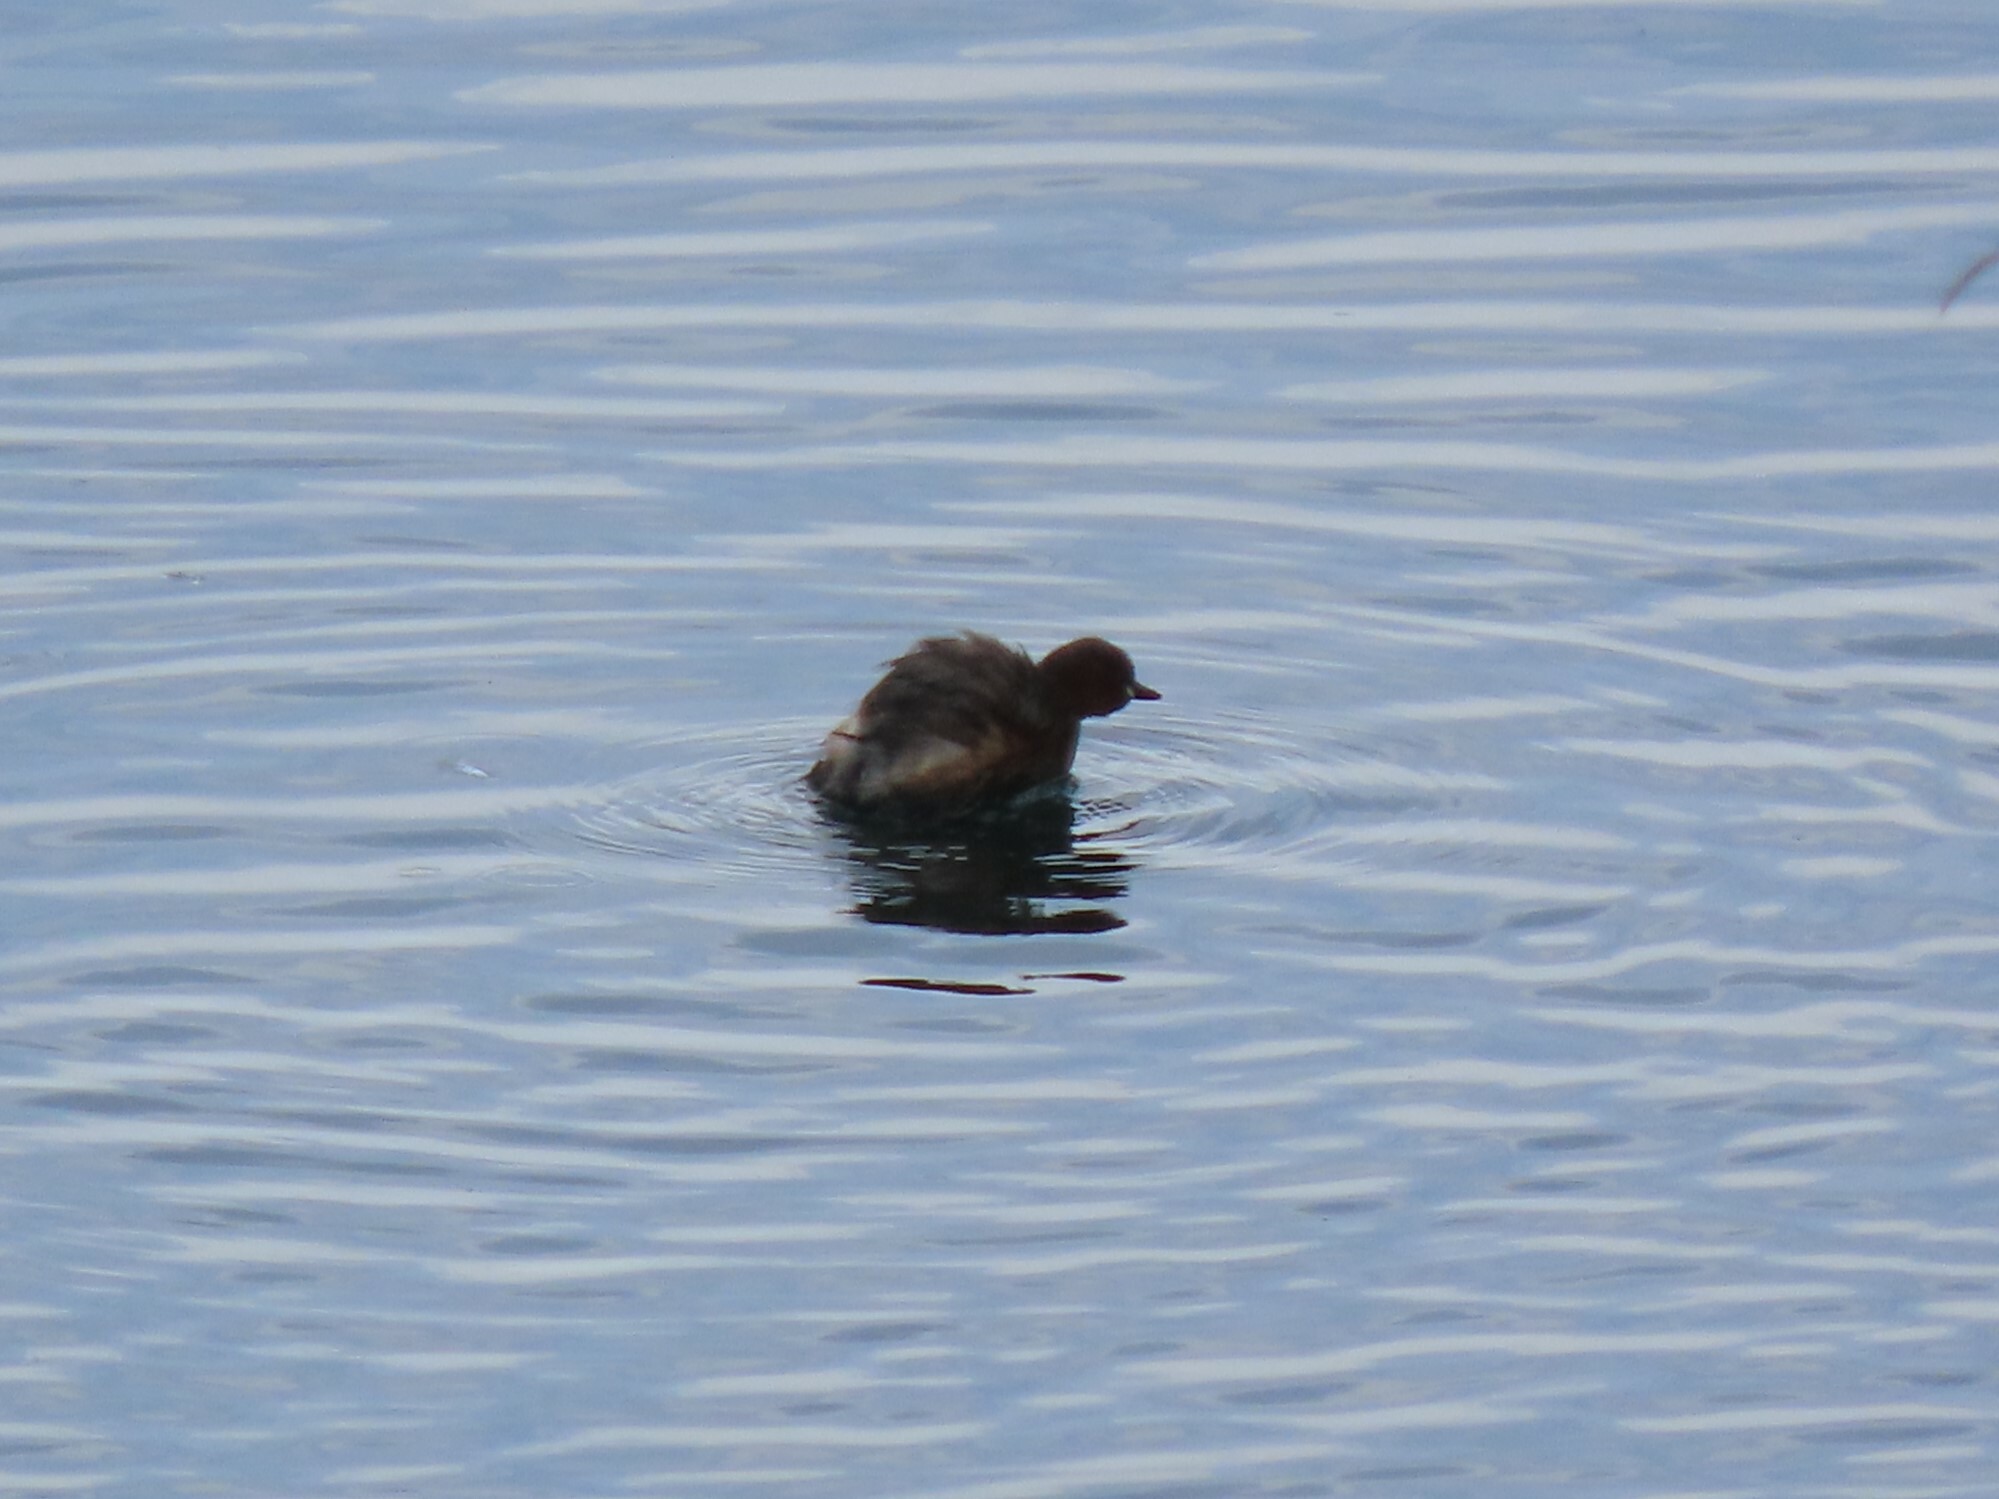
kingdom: Animalia
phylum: Chordata
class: Aves
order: Podicipediformes
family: Podicipedidae
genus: Tachybaptus
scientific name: Tachybaptus ruficollis
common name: Little grebe
